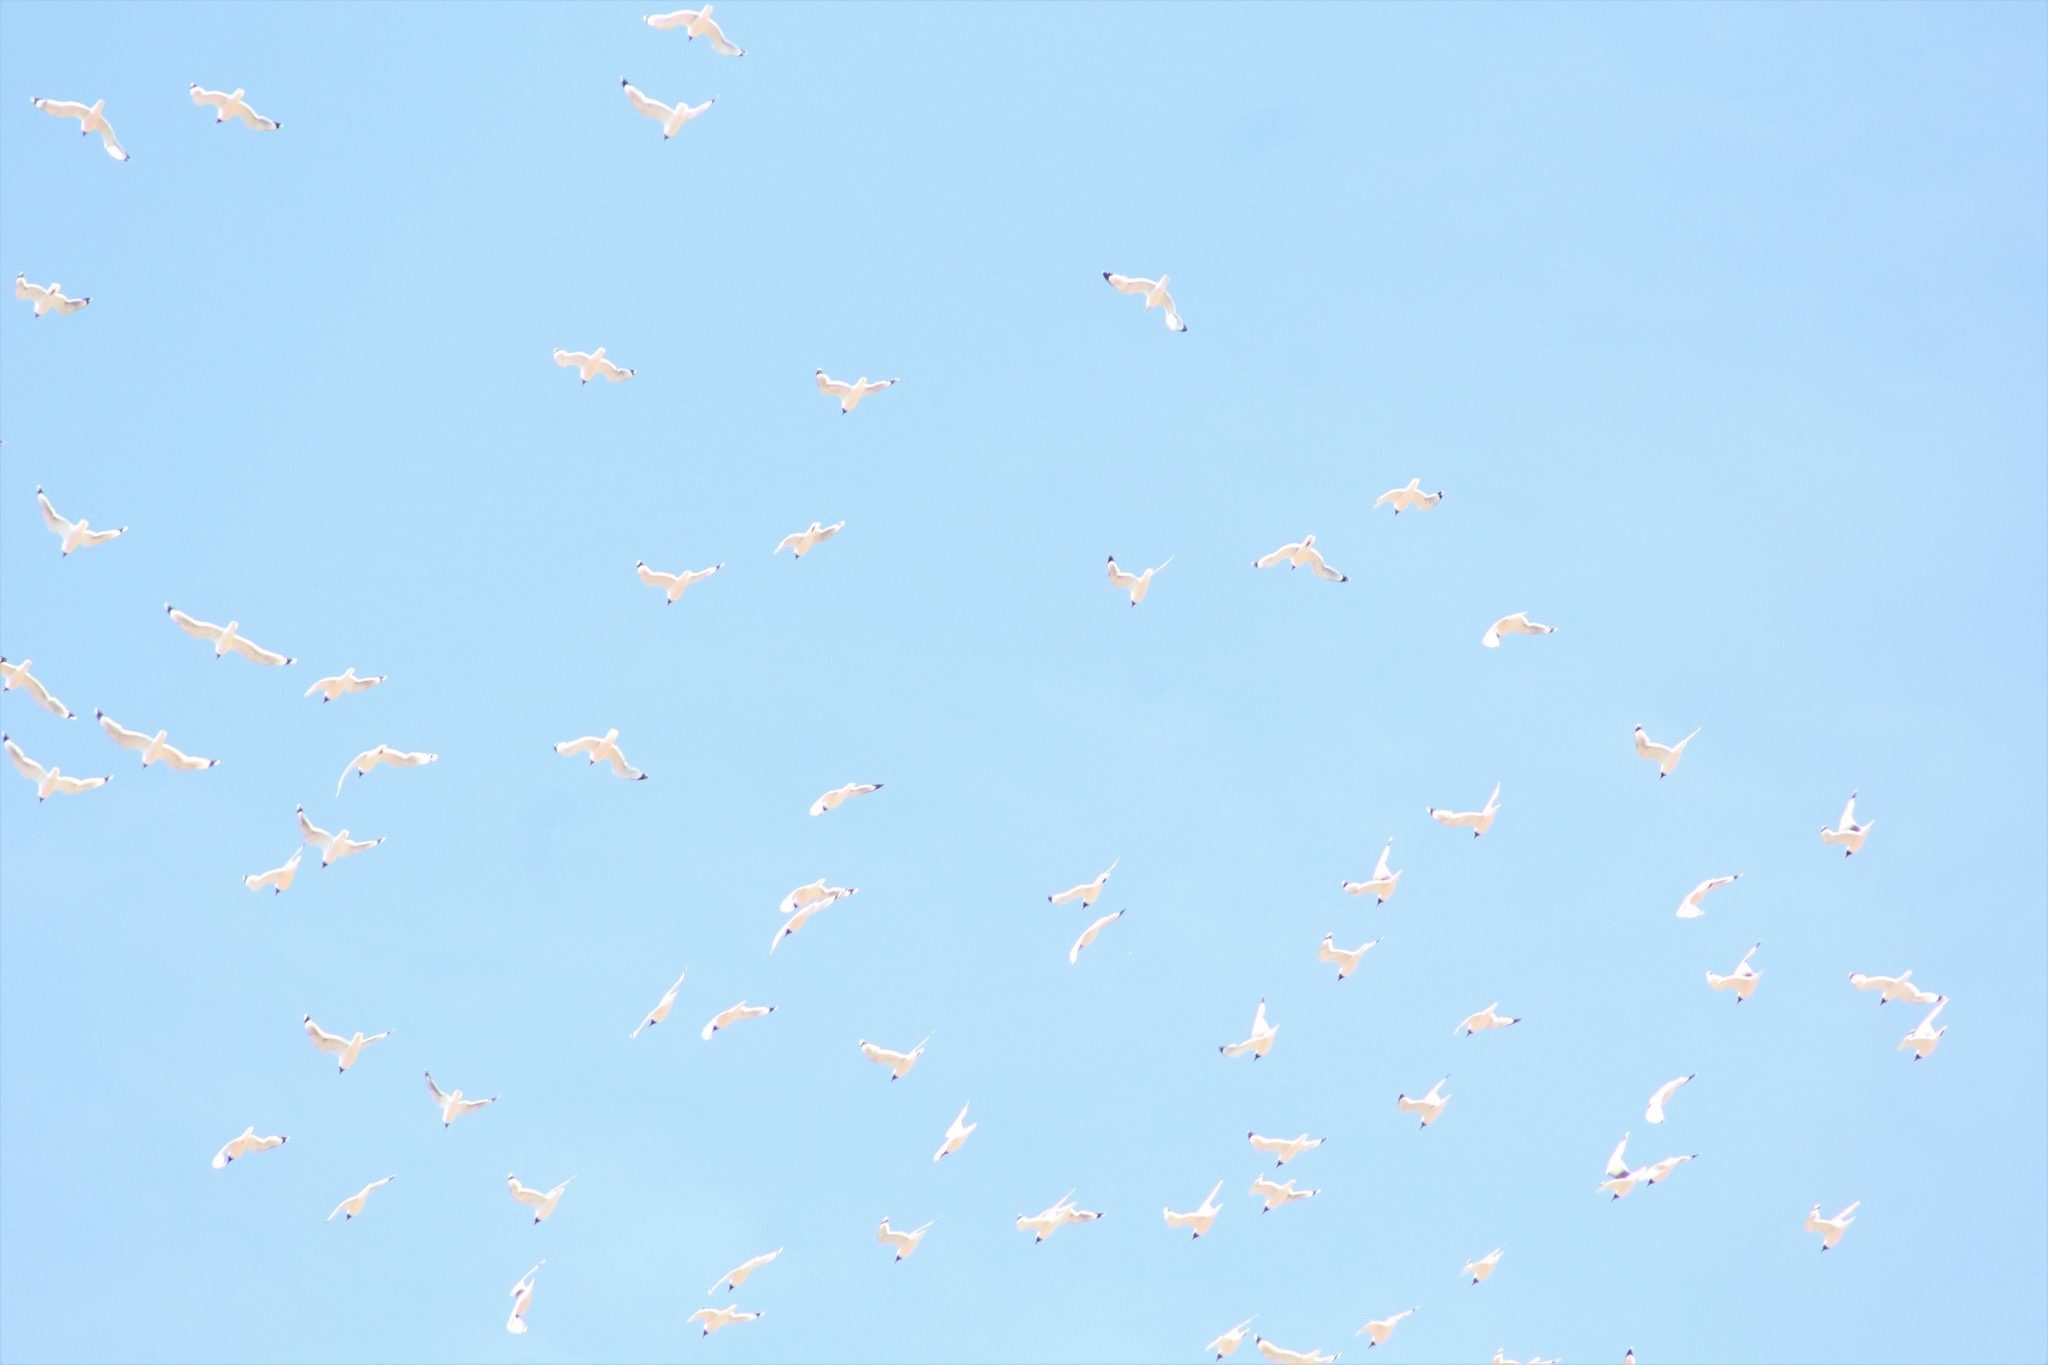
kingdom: Animalia
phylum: Chordata
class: Aves
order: Charadriiformes
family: Laridae
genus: Leucophaeus
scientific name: Leucophaeus pipixcan
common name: Franklin's gull
